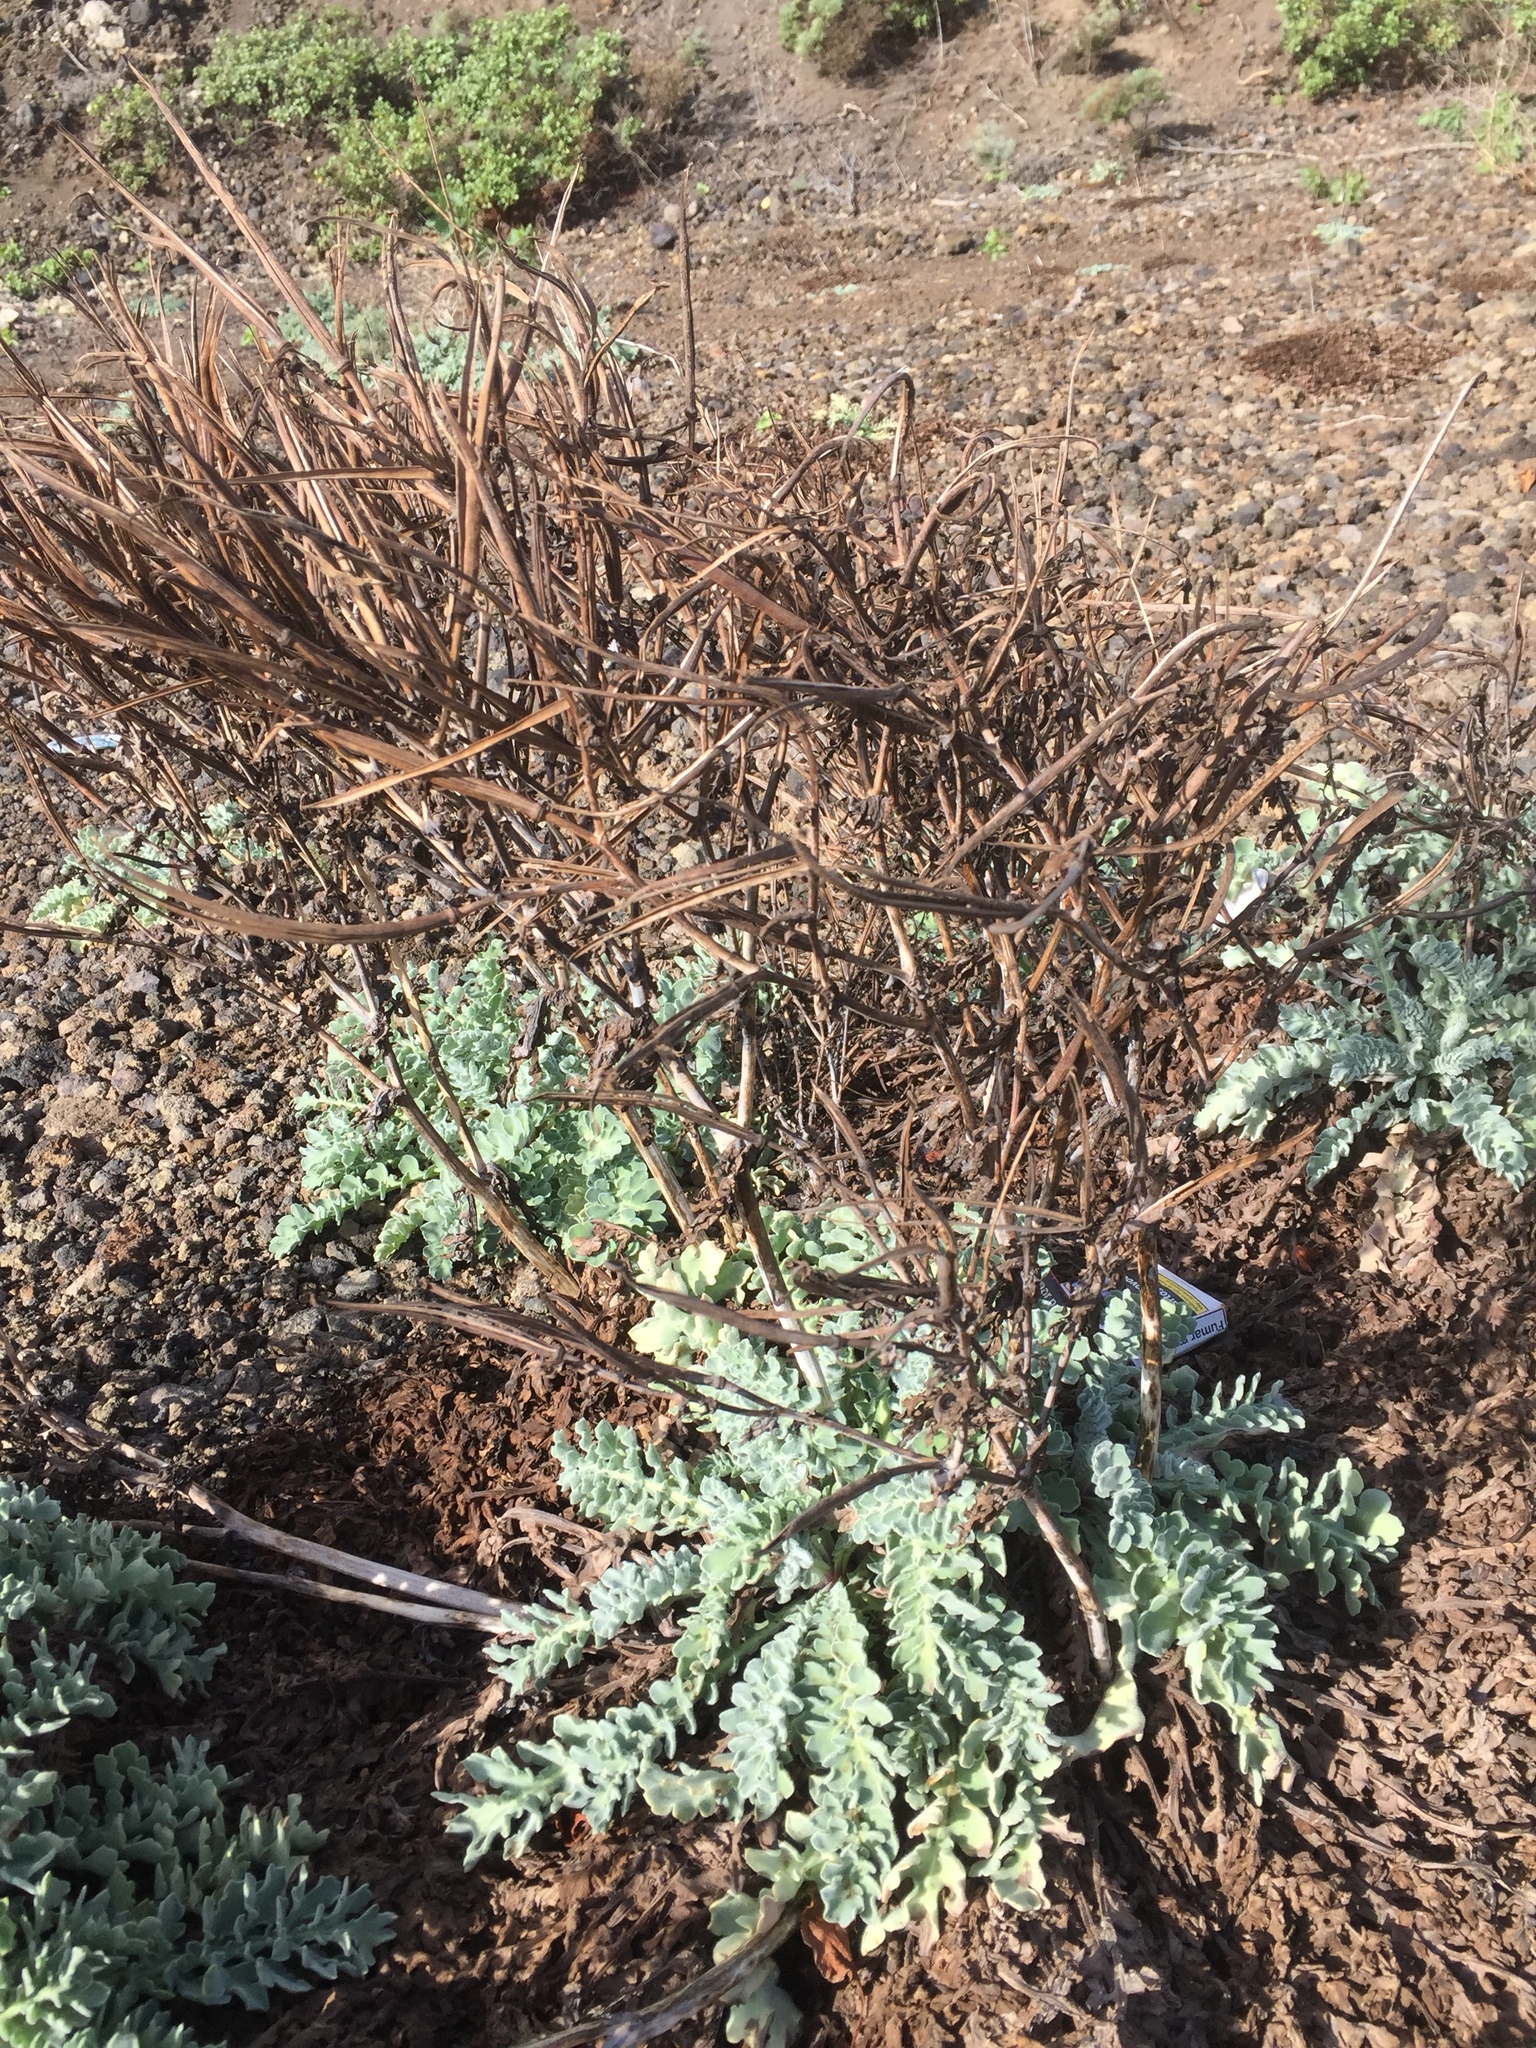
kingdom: Plantae
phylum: Tracheophyta
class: Magnoliopsida
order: Ranunculales
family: Papaveraceae
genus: Glaucium
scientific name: Glaucium flavum
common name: Yellow horned-poppy
